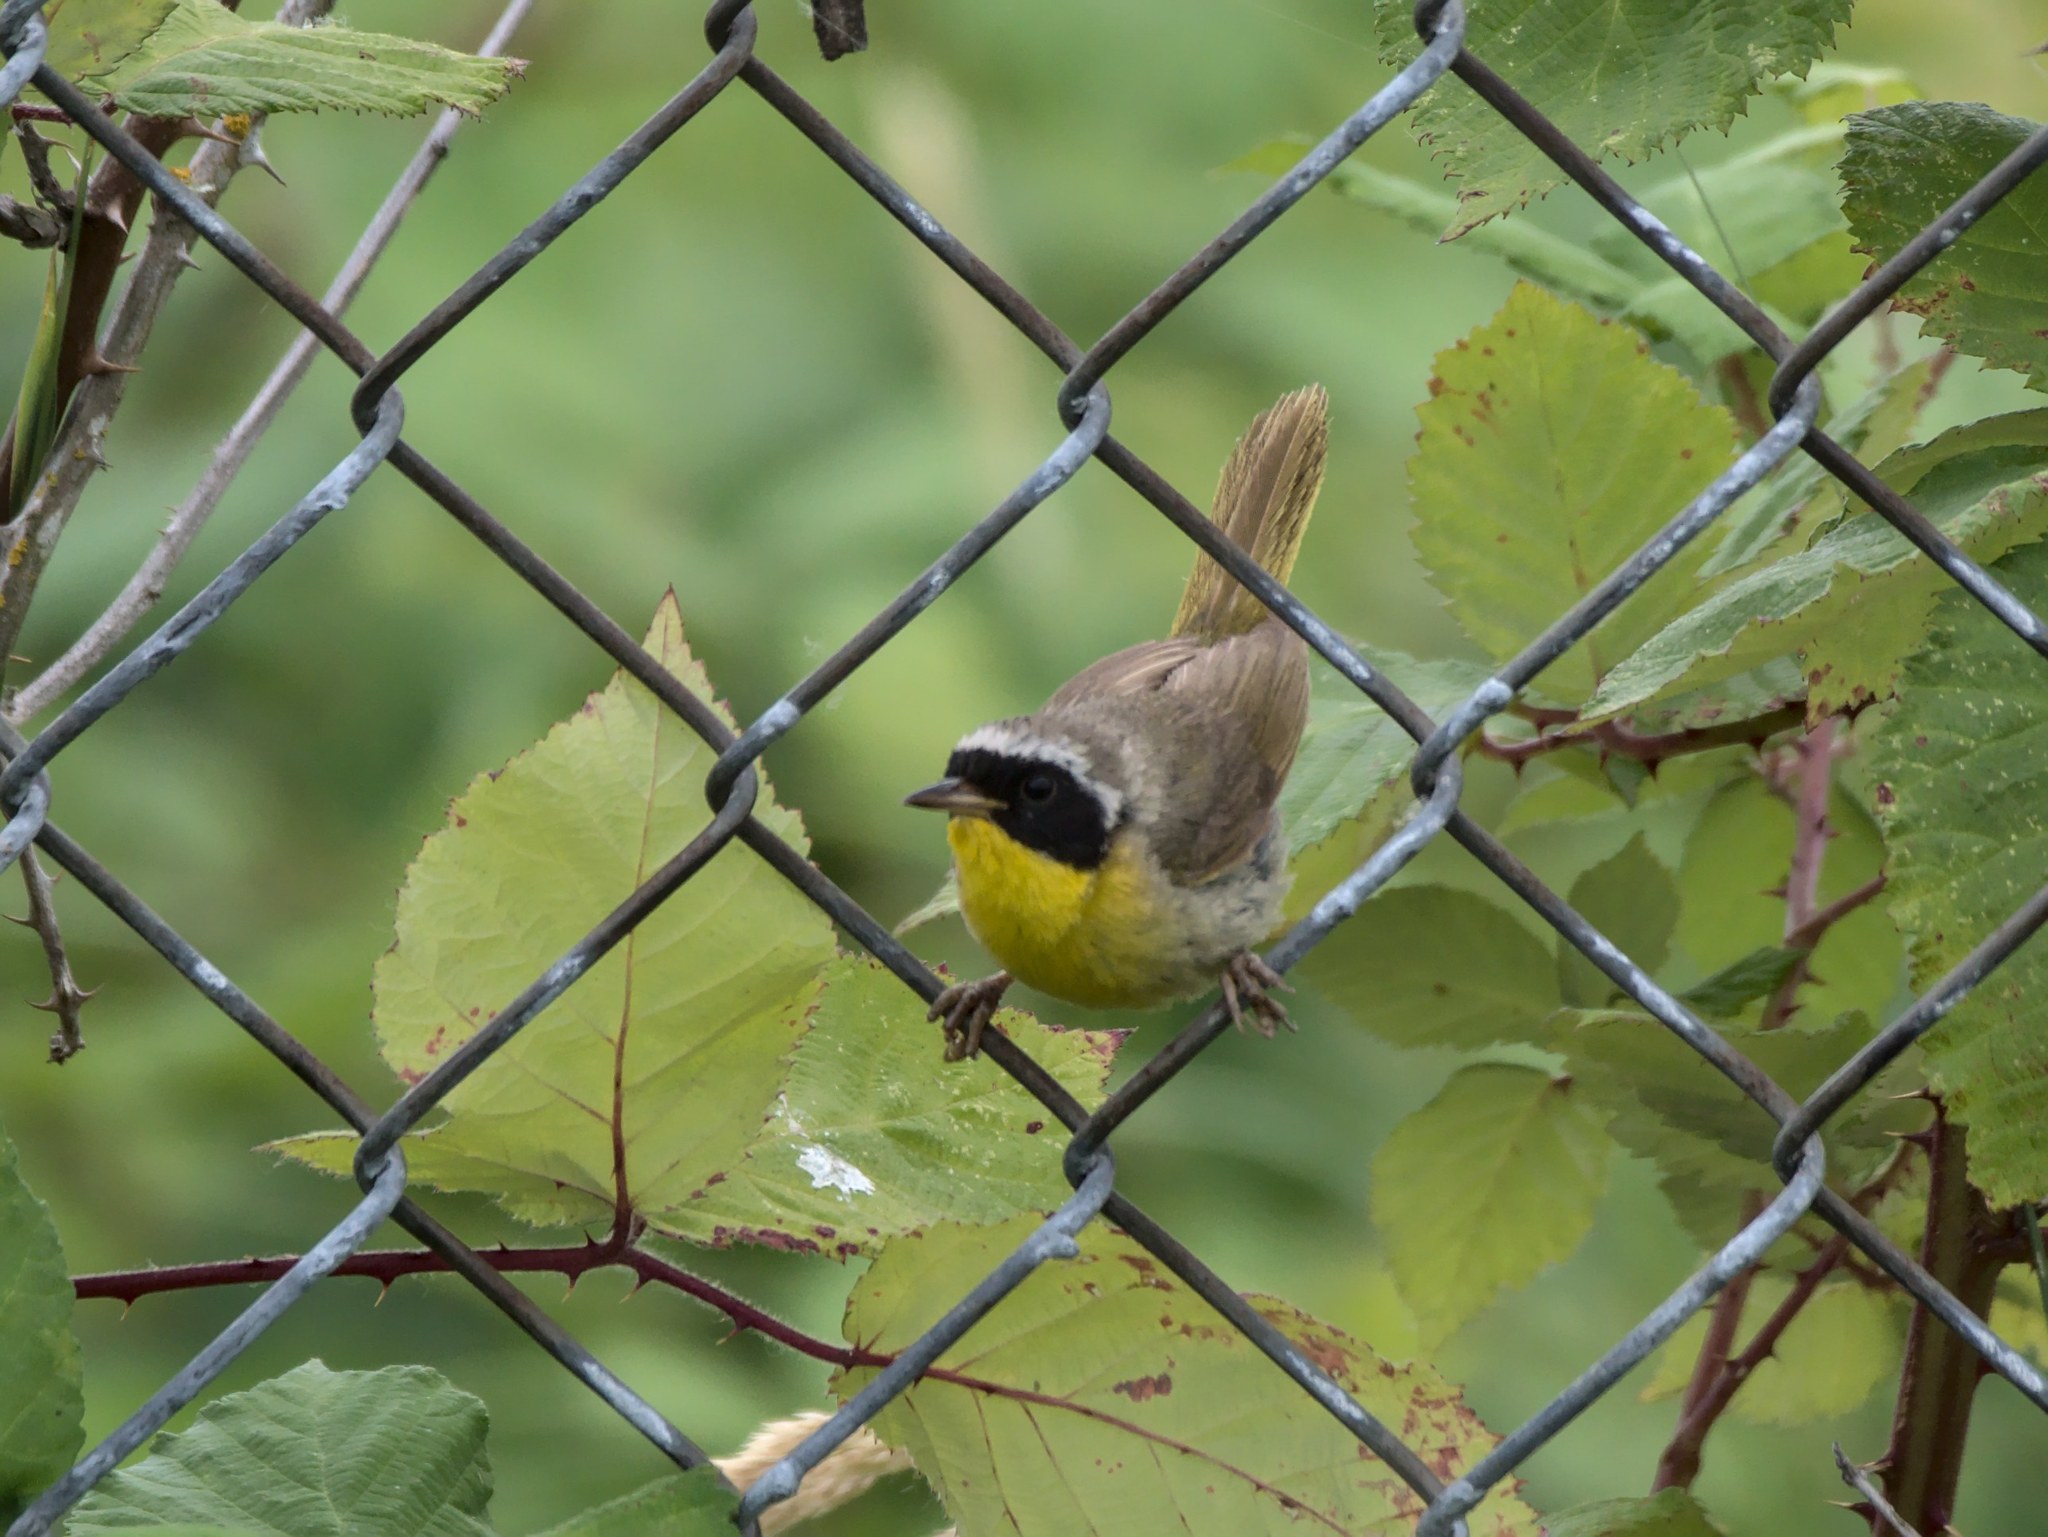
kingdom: Animalia
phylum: Chordata
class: Aves
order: Passeriformes
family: Parulidae
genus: Geothlypis
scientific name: Geothlypis trichas
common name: Common yellowthroat
